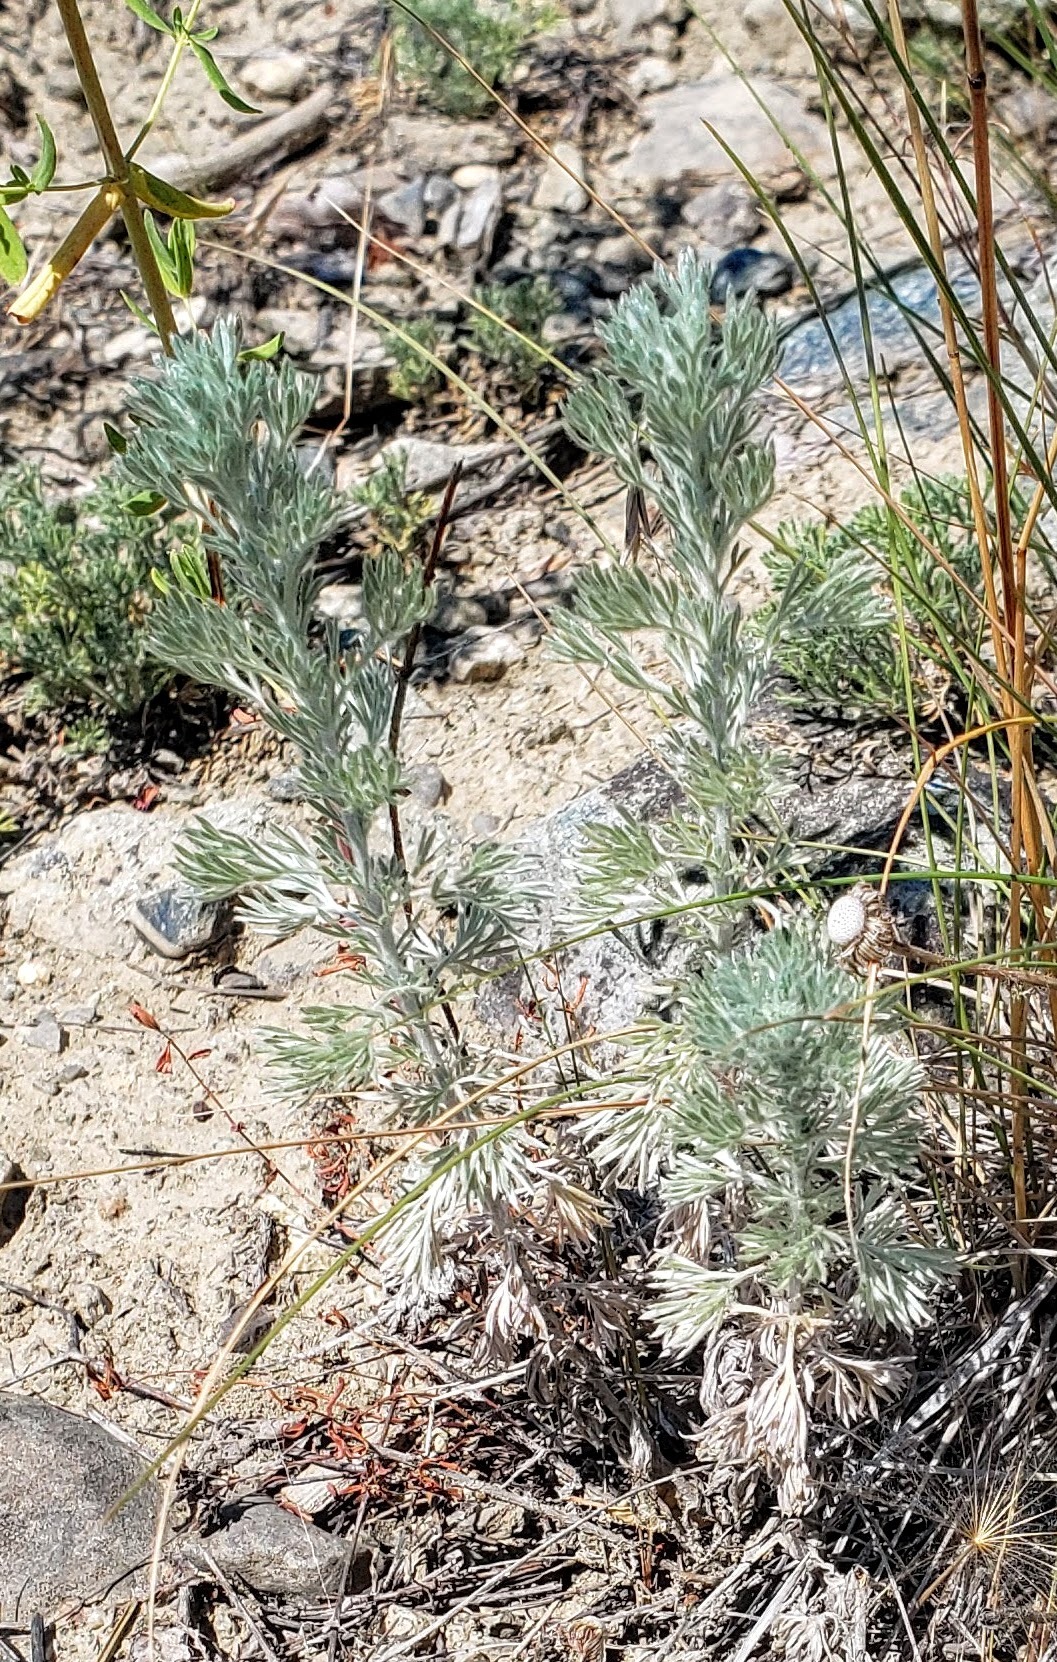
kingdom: Plantae
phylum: Tracheophyta
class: Magnoliopsida
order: Asterales
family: Asteraceae
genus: Artemisia
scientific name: Artemisia frigida
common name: Prairie sagewort
